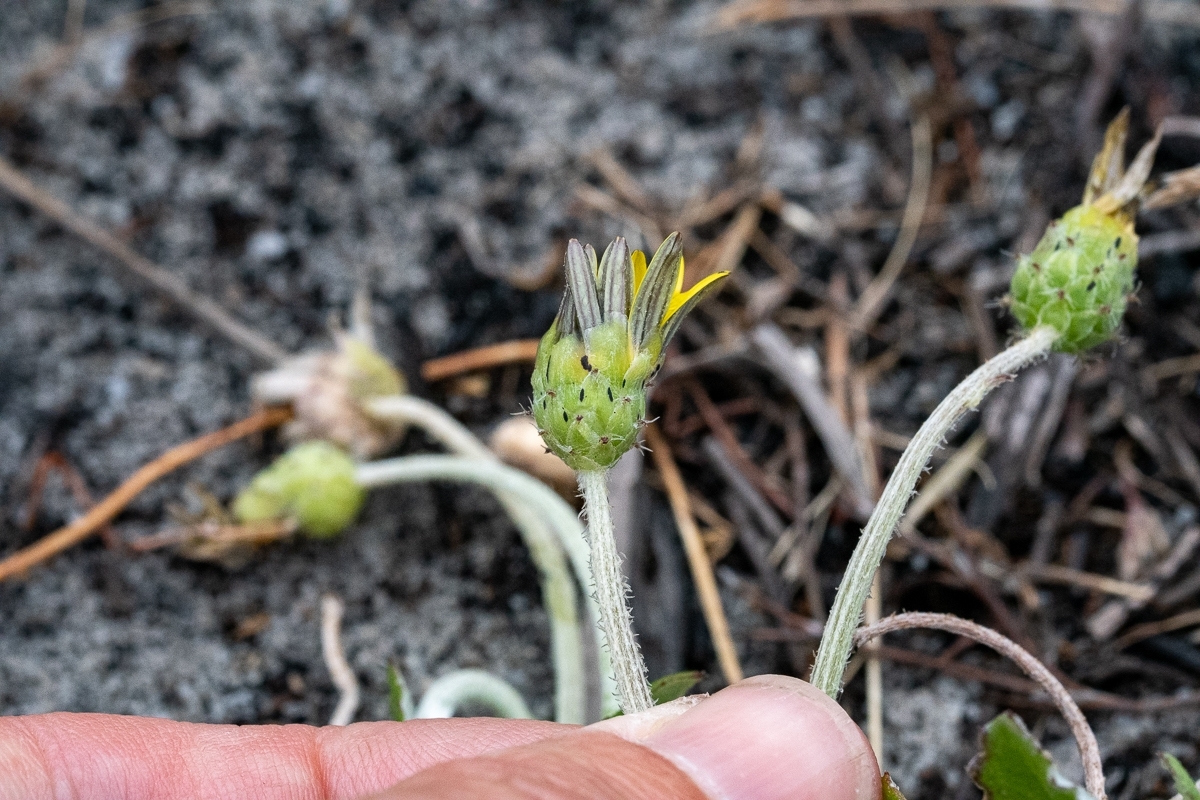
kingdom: Plantae
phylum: Tracheophyta
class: Magnoliopsida
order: Asterales
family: Asteraceae
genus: Arctotheca
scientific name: Arctotheca calendula
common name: Capeweed
